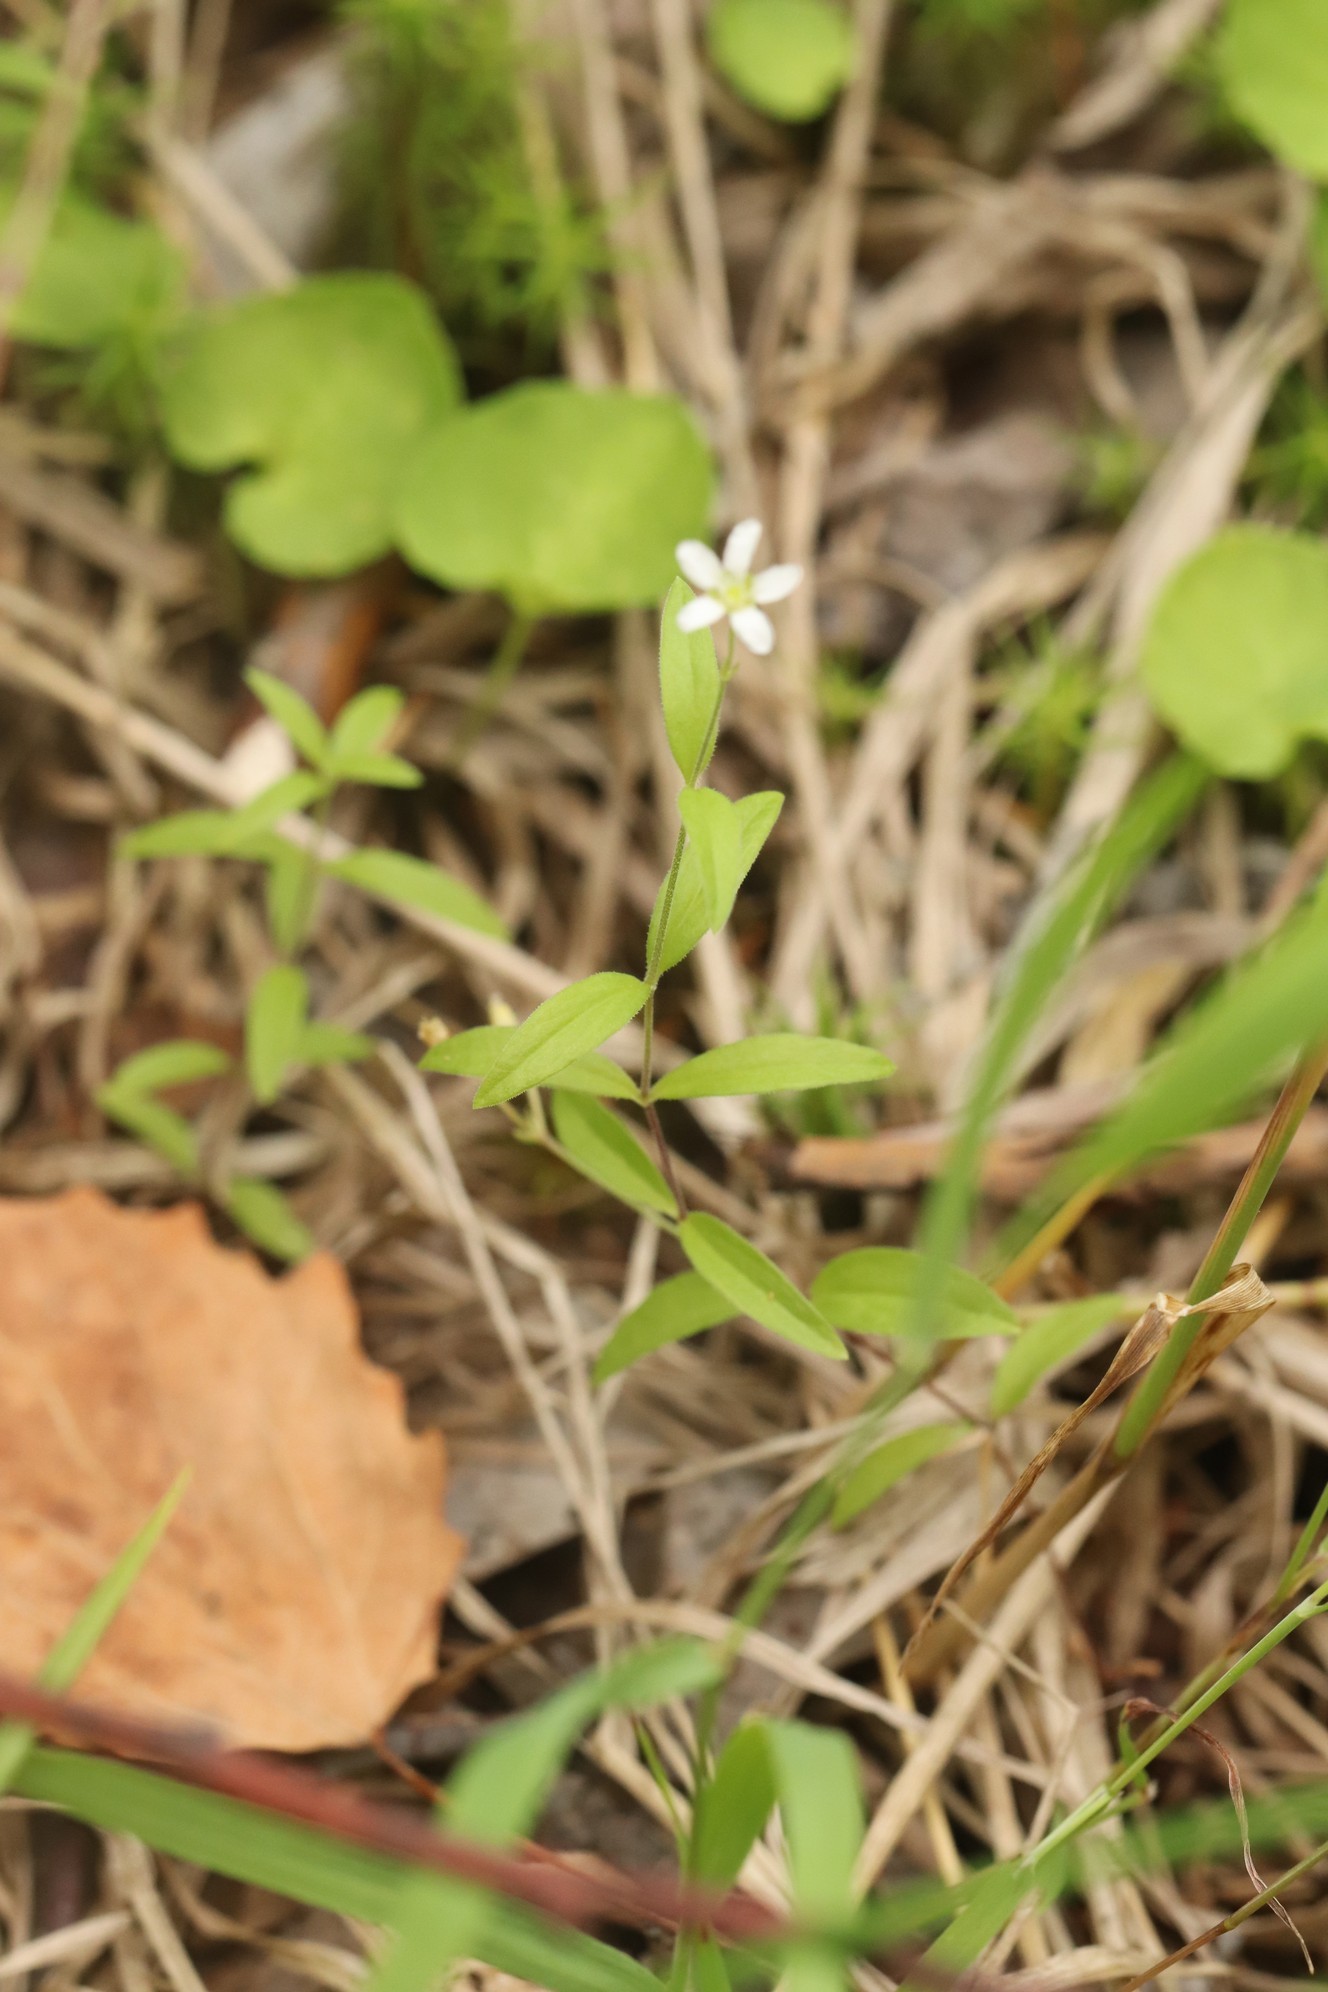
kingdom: Plantae
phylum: Tracheophyta
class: Magnoliopsida
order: Caryophyllales
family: Caryophyllaceae
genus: Moehringia
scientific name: Moehringia lateriflora
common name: Blunt-leaved sandwort
